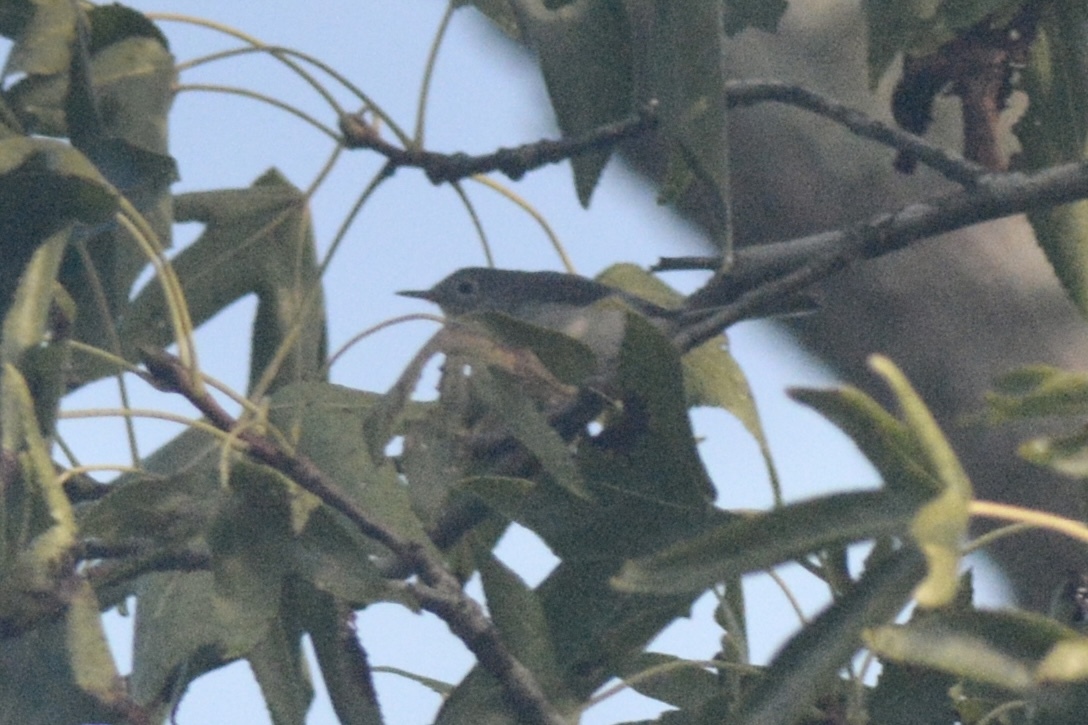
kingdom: Animalia
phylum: Chordata
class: Aves
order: Passeriformes
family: Polioptilidae
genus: Polioptila
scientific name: Polioptila caerulea
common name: Blue-gray gnatcatcher
